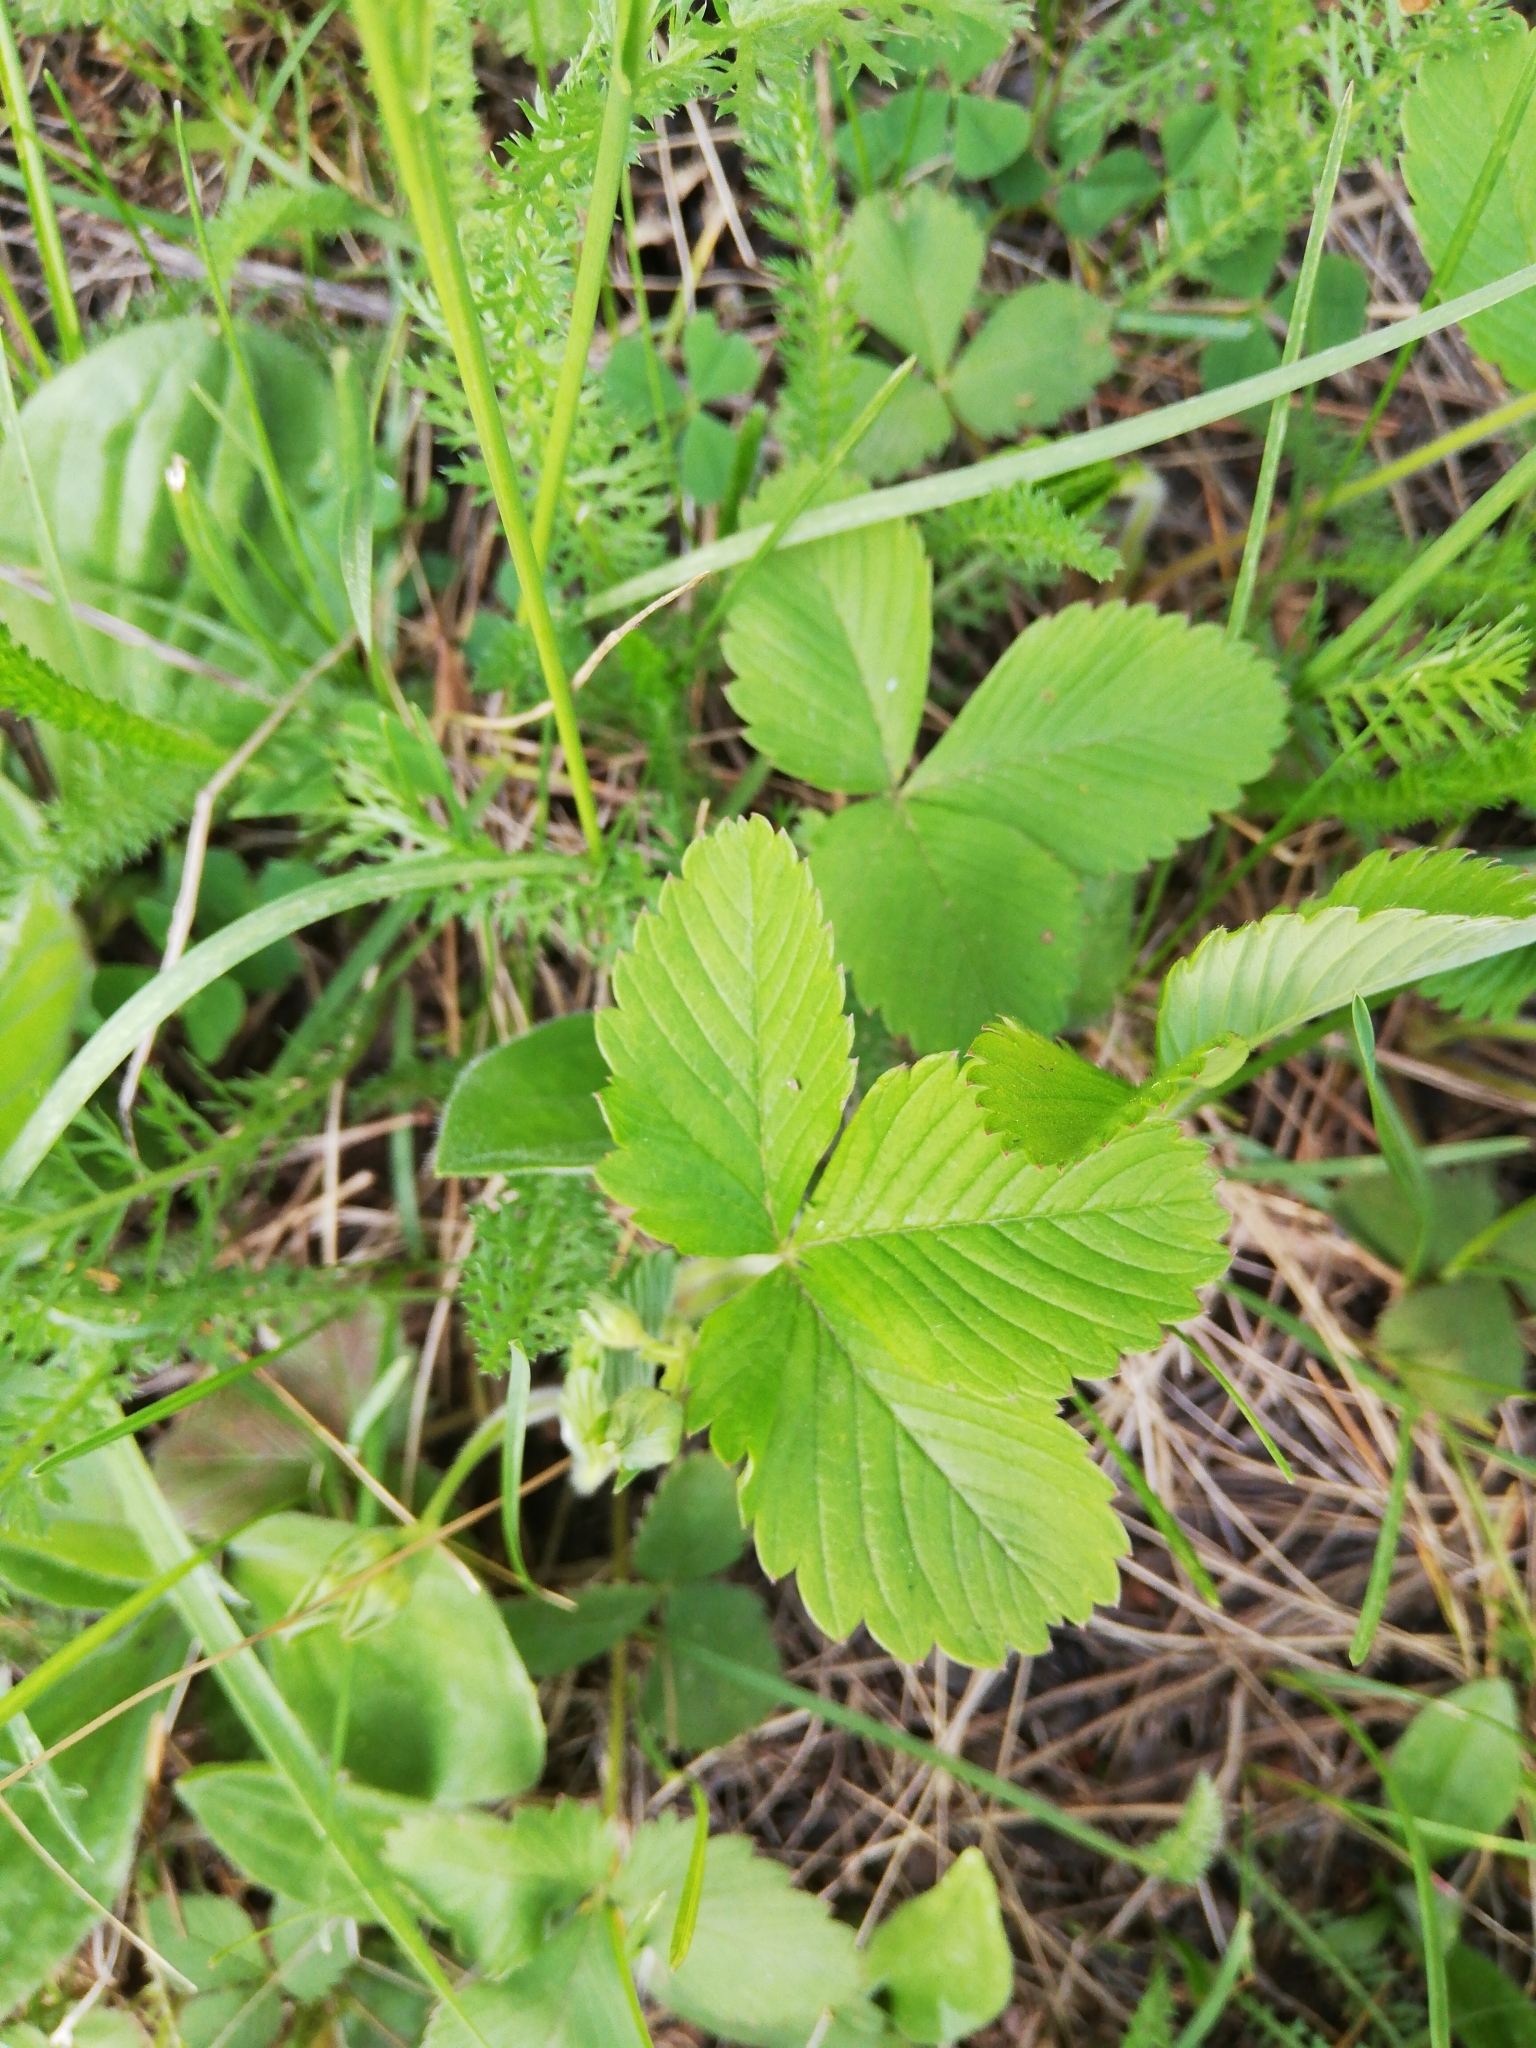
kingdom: Plantae
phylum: Tracheophyta
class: Magnoliopsida
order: Rosales
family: Rosaceae
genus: Fragaria
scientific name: Fragaria viridis
